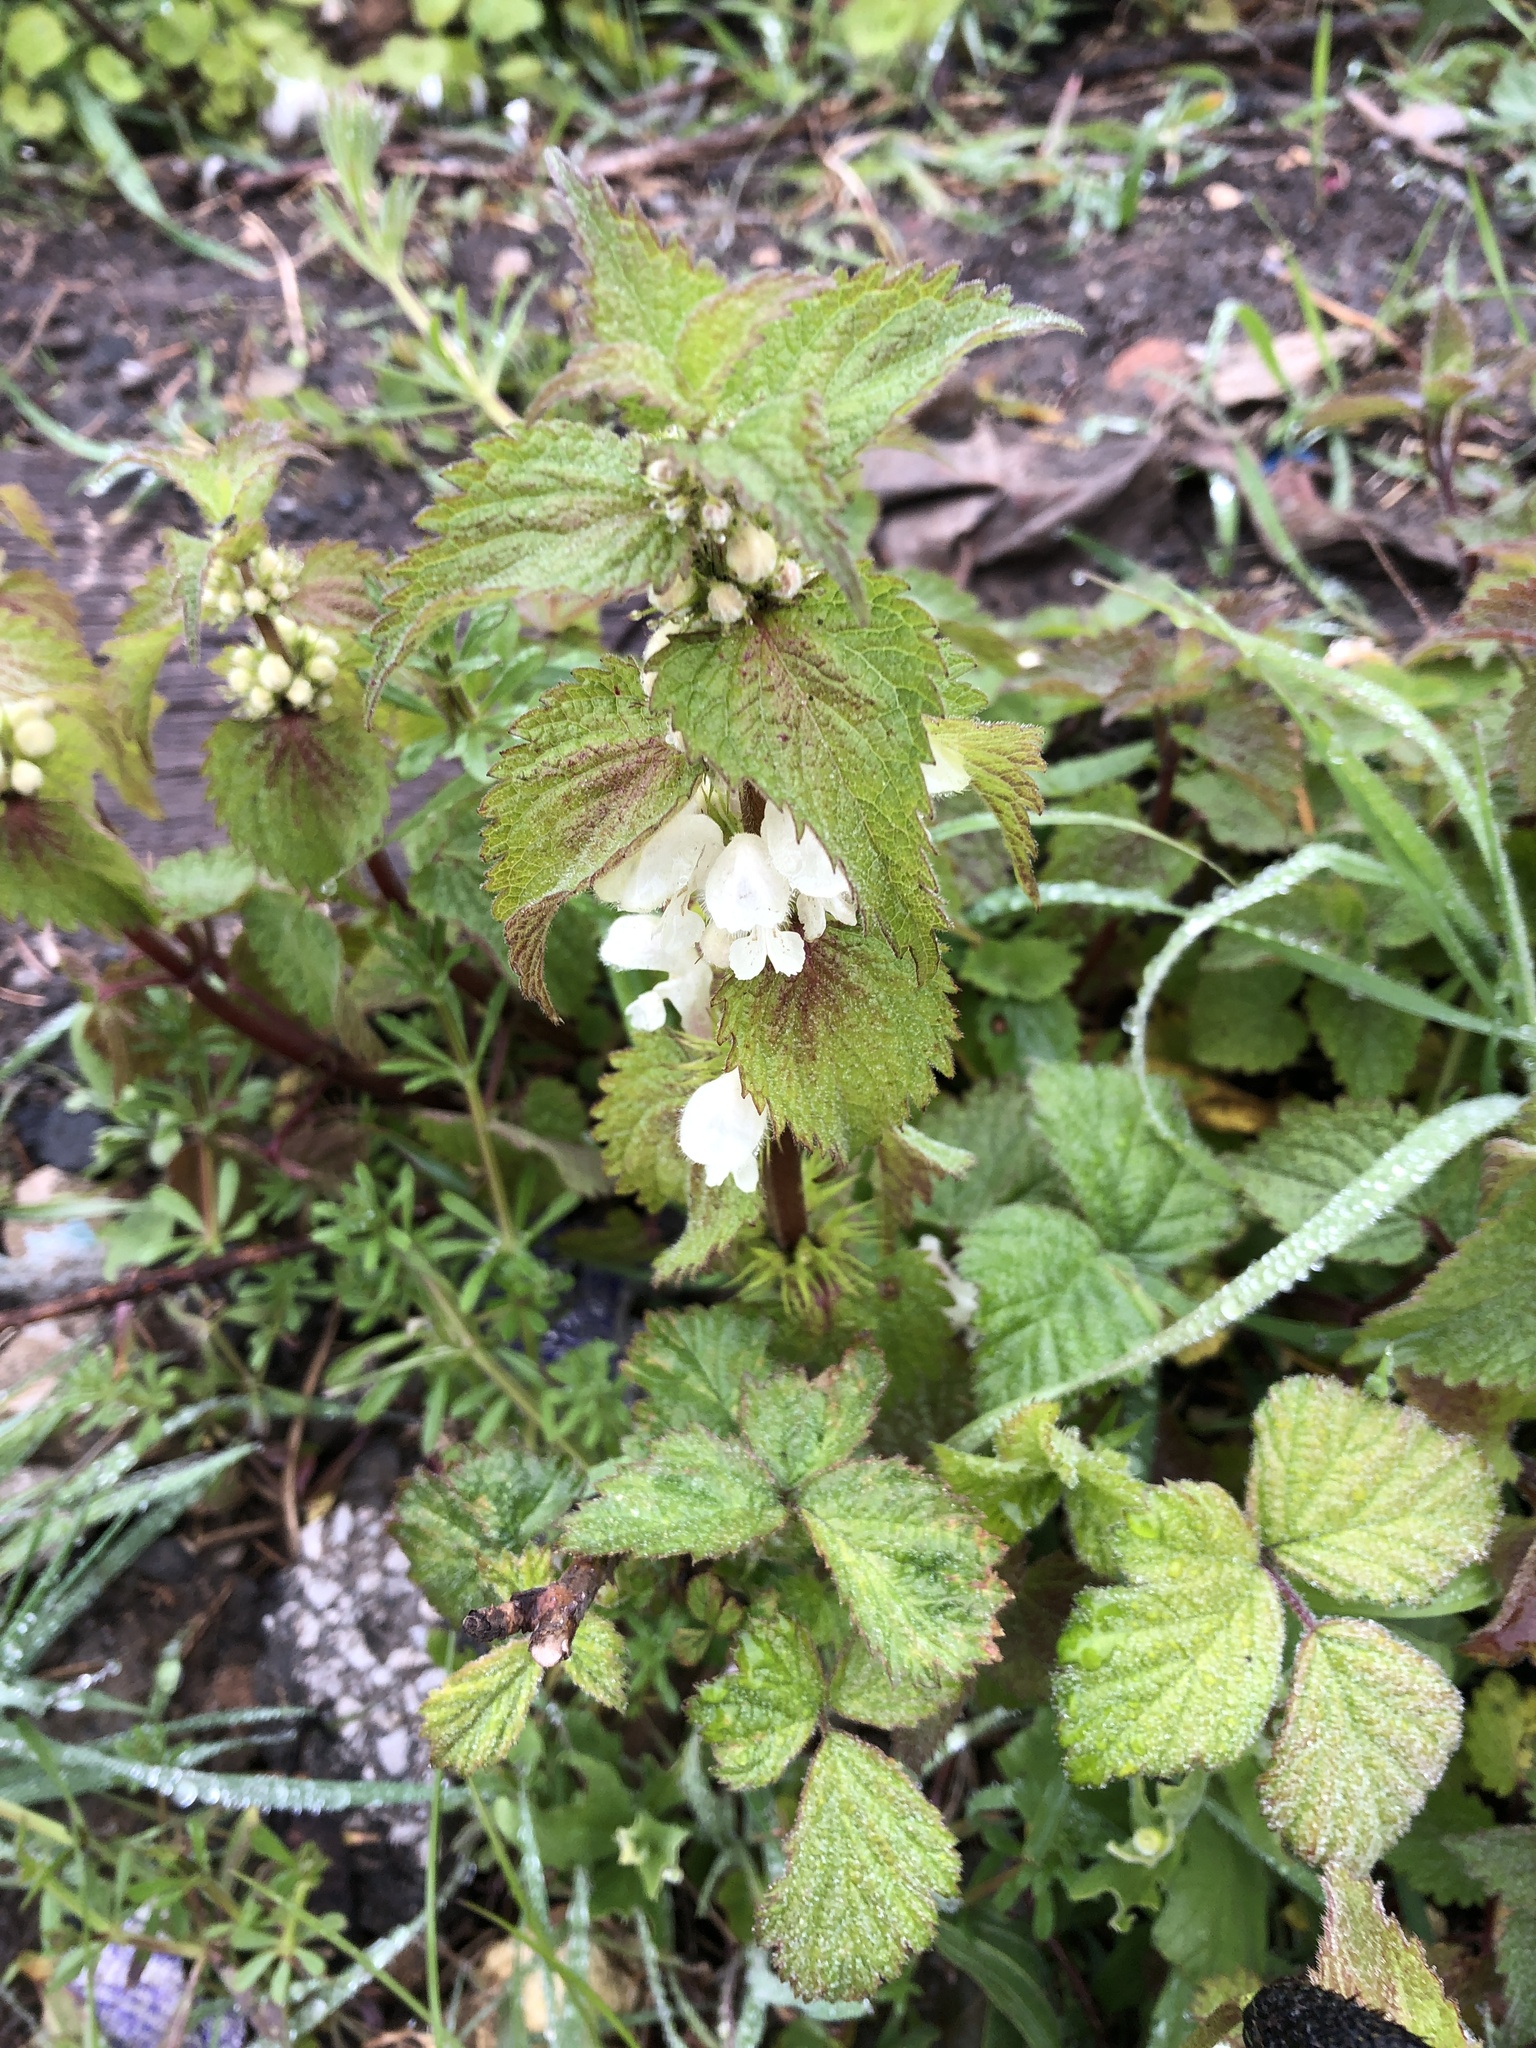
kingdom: Plantae
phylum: Tracheophyta
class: Magnoliopsida
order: Lamiales
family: Lamiaceae
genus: Lamium
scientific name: Lamium album
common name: White dead-nettle
